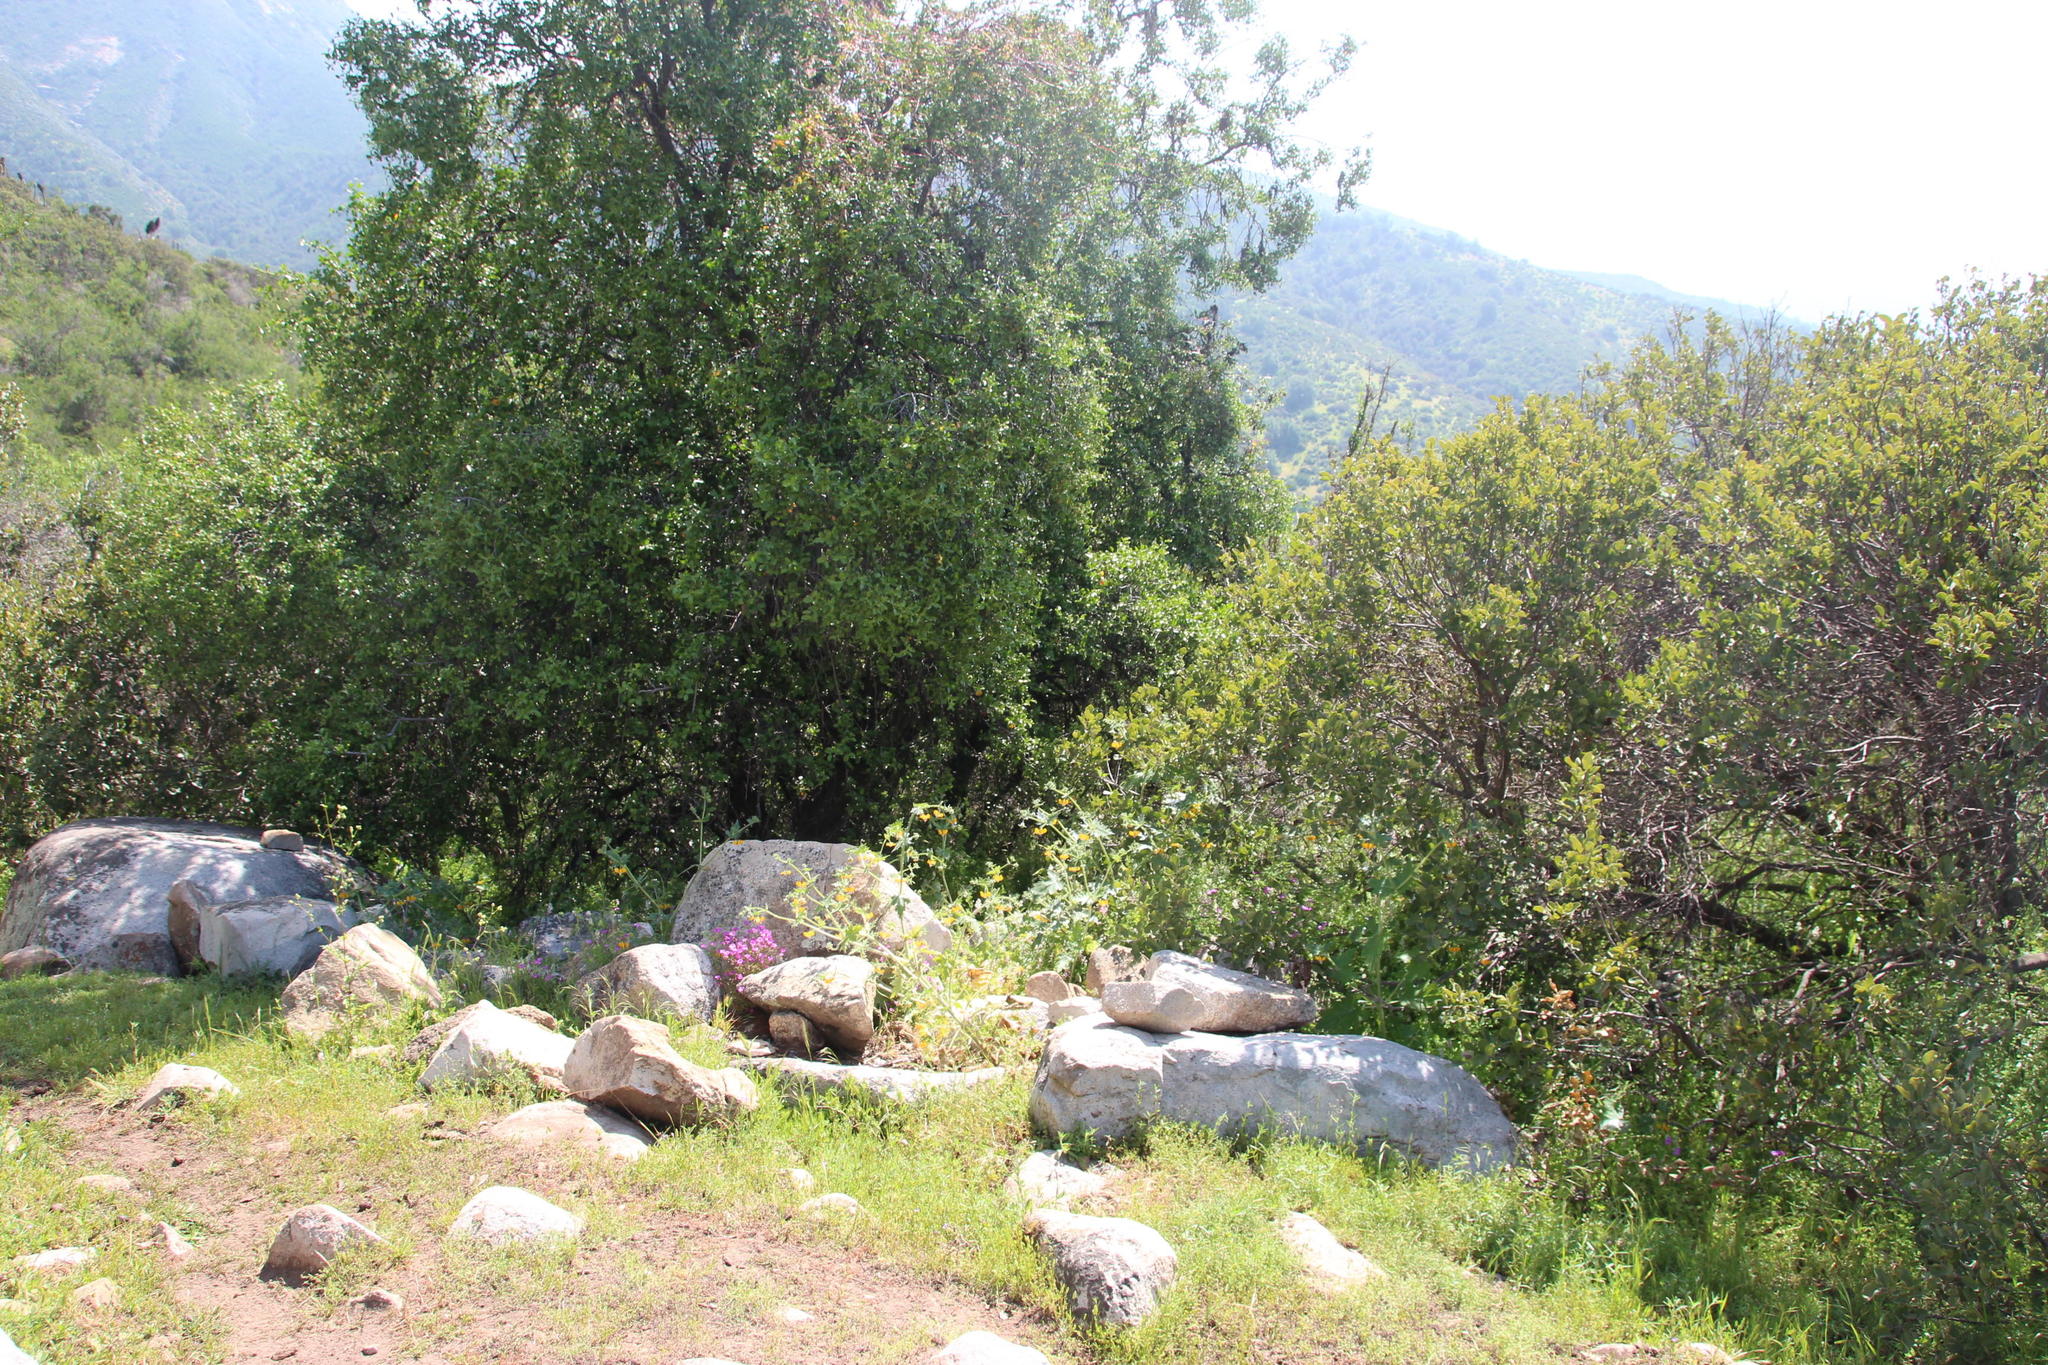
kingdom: Plantae
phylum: Tracheophyta
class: Magnoliopsida
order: Cornales
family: Loasaceae
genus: Loasa
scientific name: Loasa placei
